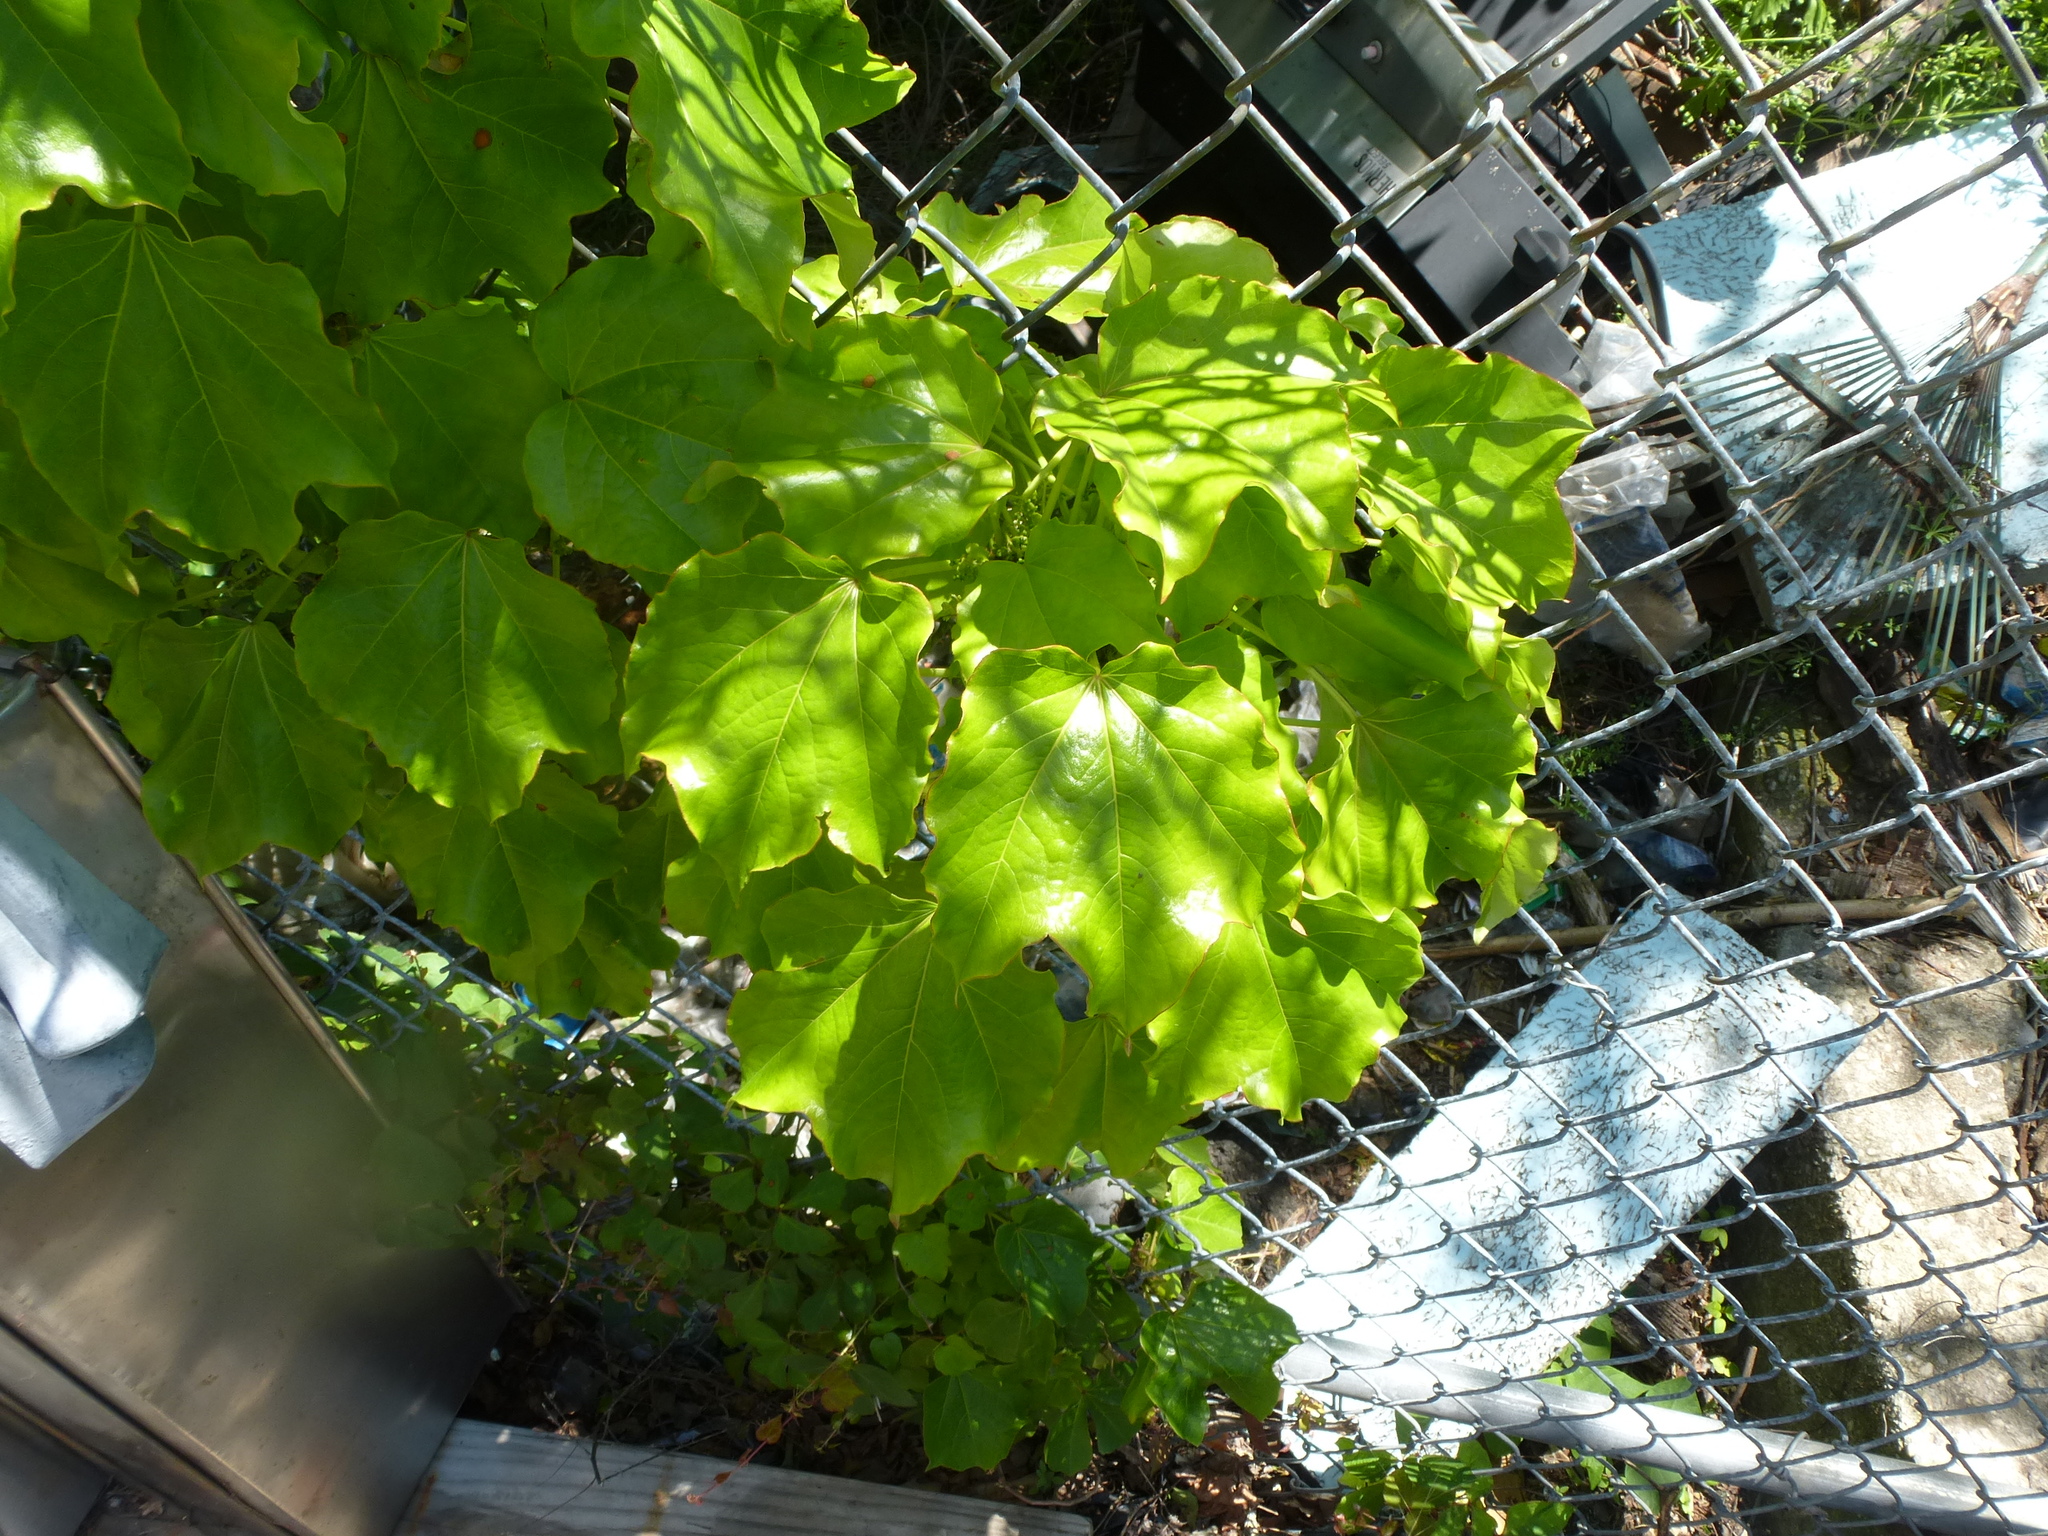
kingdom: Plantae
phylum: Tracheophyta
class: Magnoliopsida
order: Vitales
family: Vitaceae
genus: Parthenocissus
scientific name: Parthenocissus tricuspidata
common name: Boston ivy
